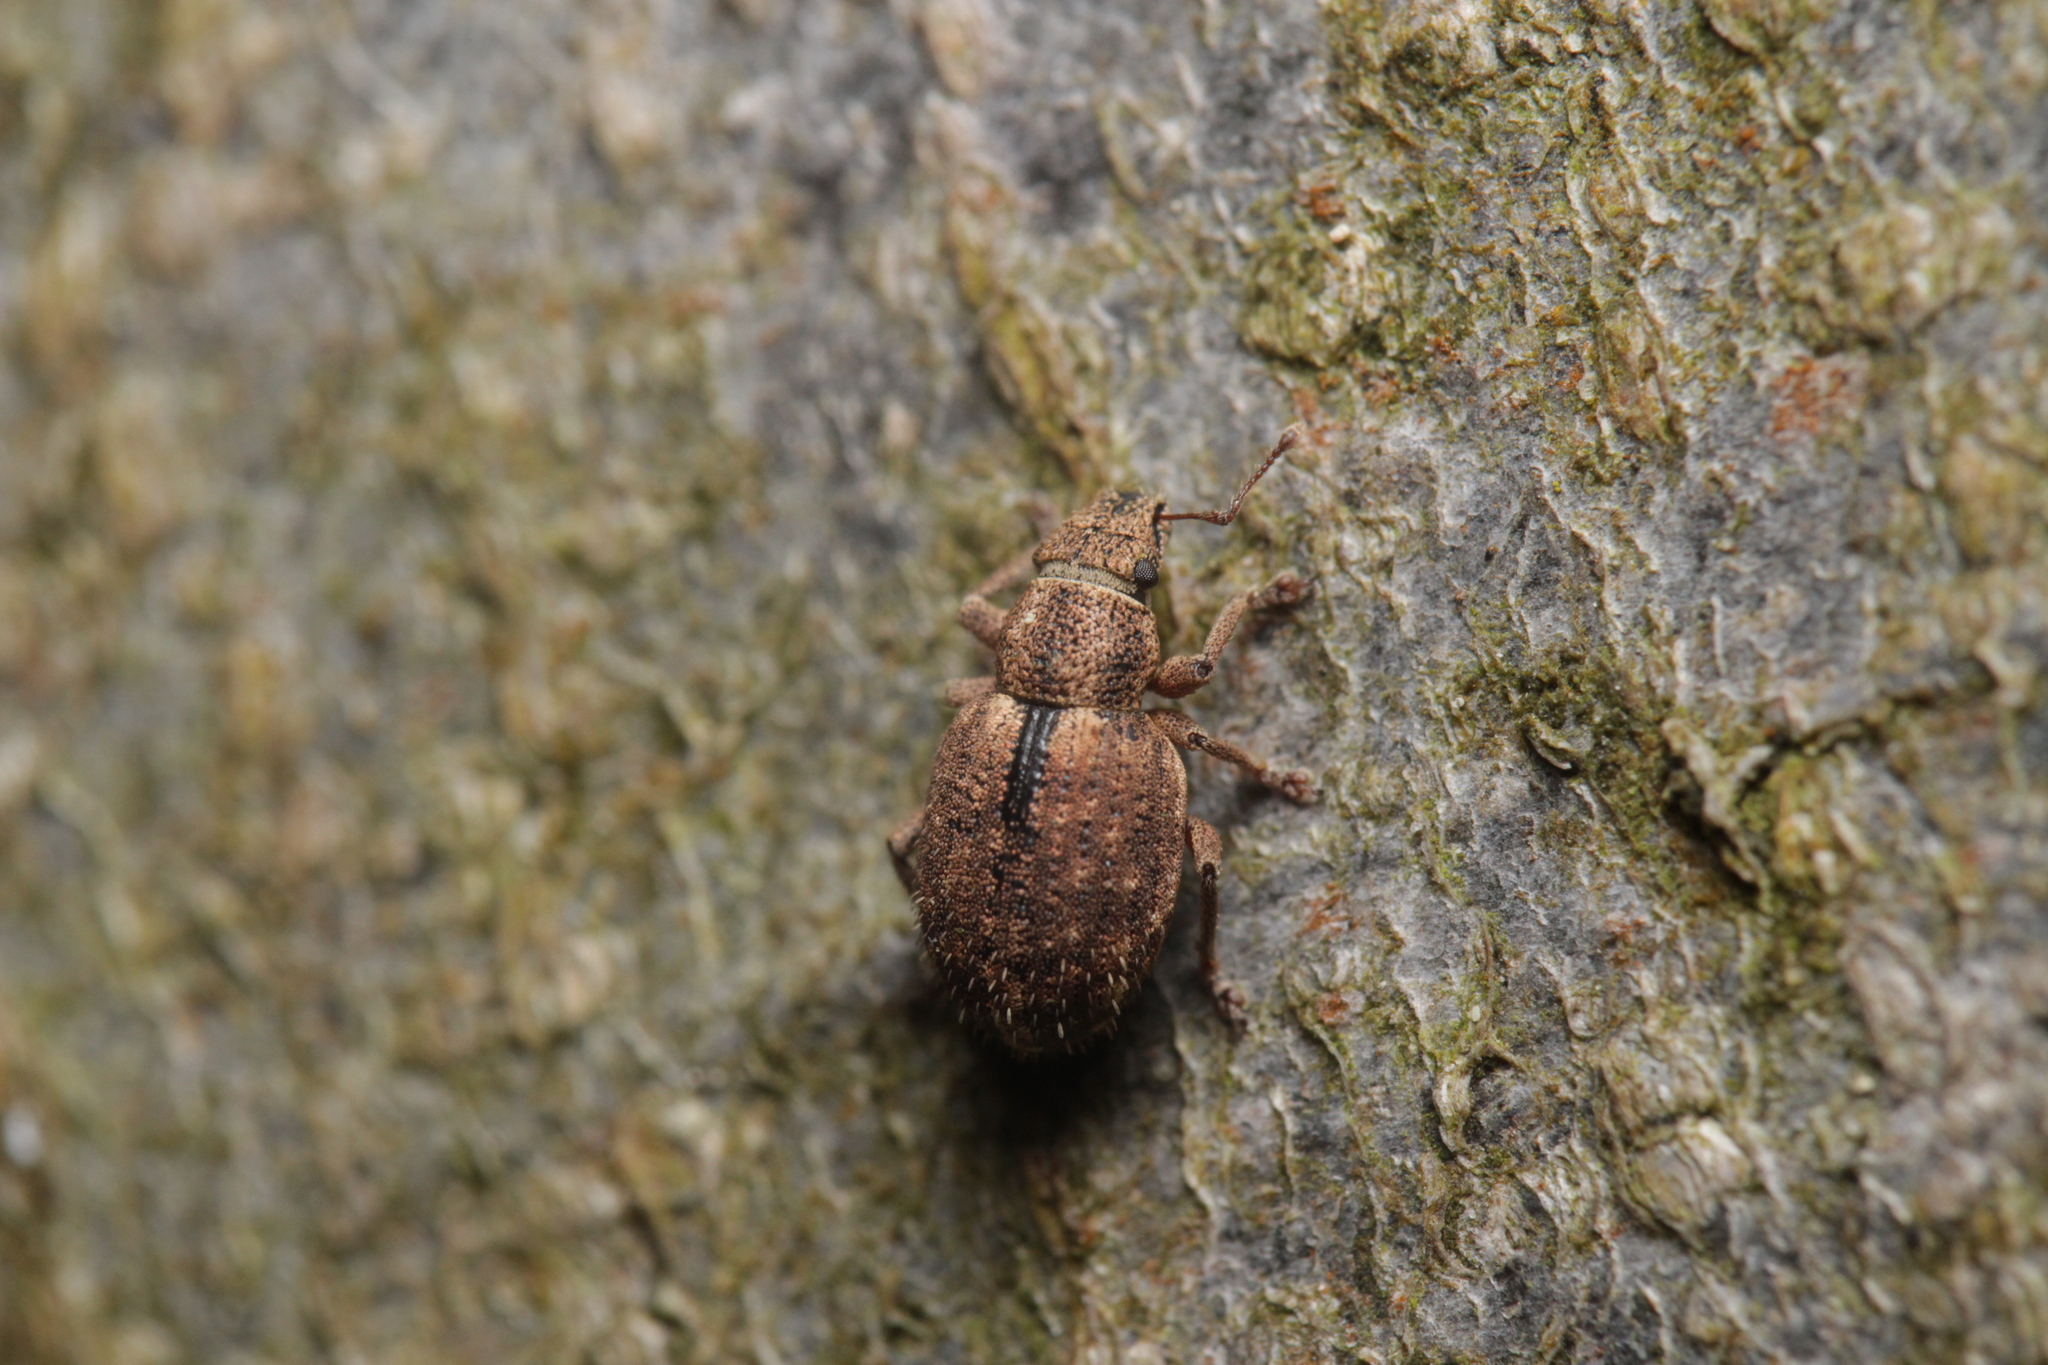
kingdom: Animalia
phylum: Arthropoda
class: Insecta
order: Coleoptera
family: Curculionidae
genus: Strophosoma
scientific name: Strophosoma melanogrammum
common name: Weevil
